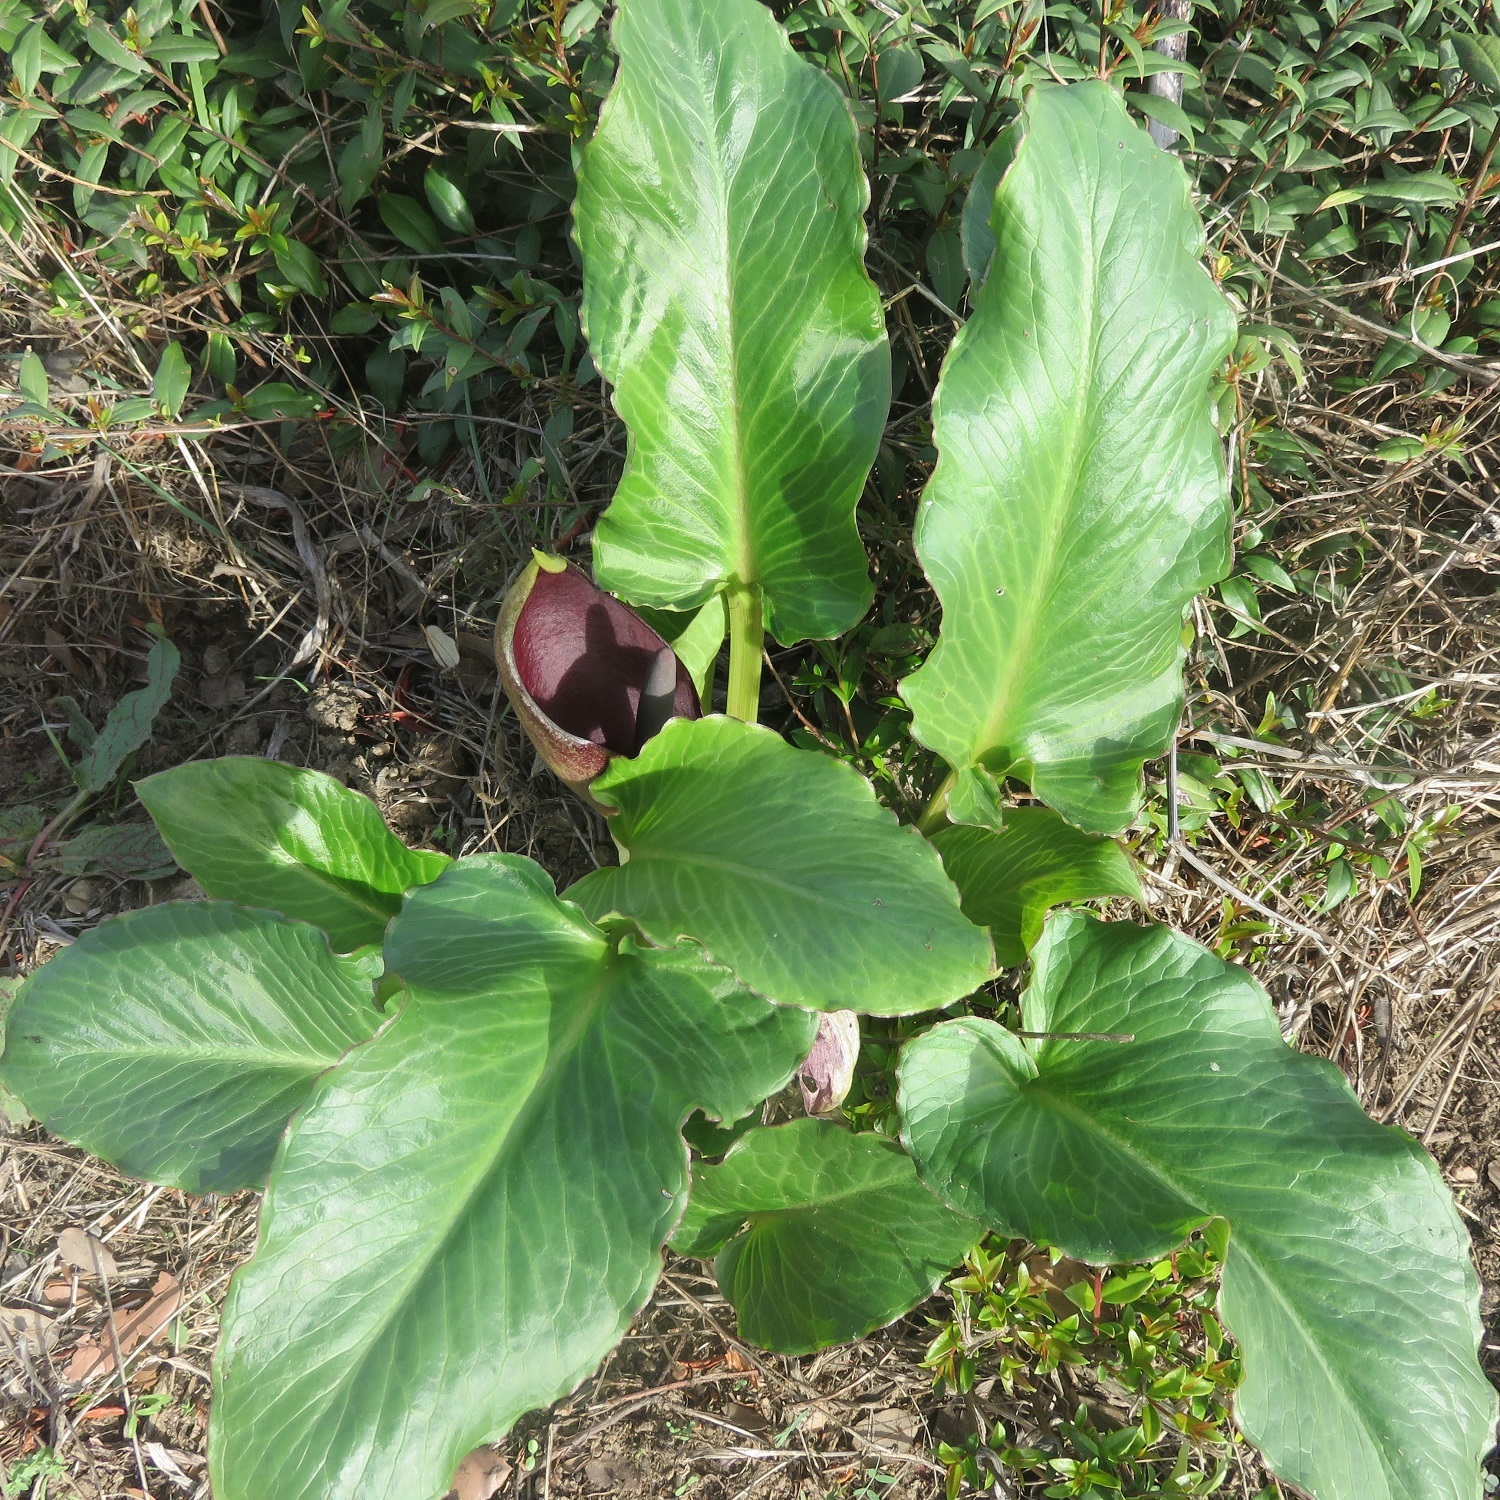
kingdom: Plantae
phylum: Tracheophyta
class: Liliopsida
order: Alismatales
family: Araceae
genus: Arum
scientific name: Arum pictum
